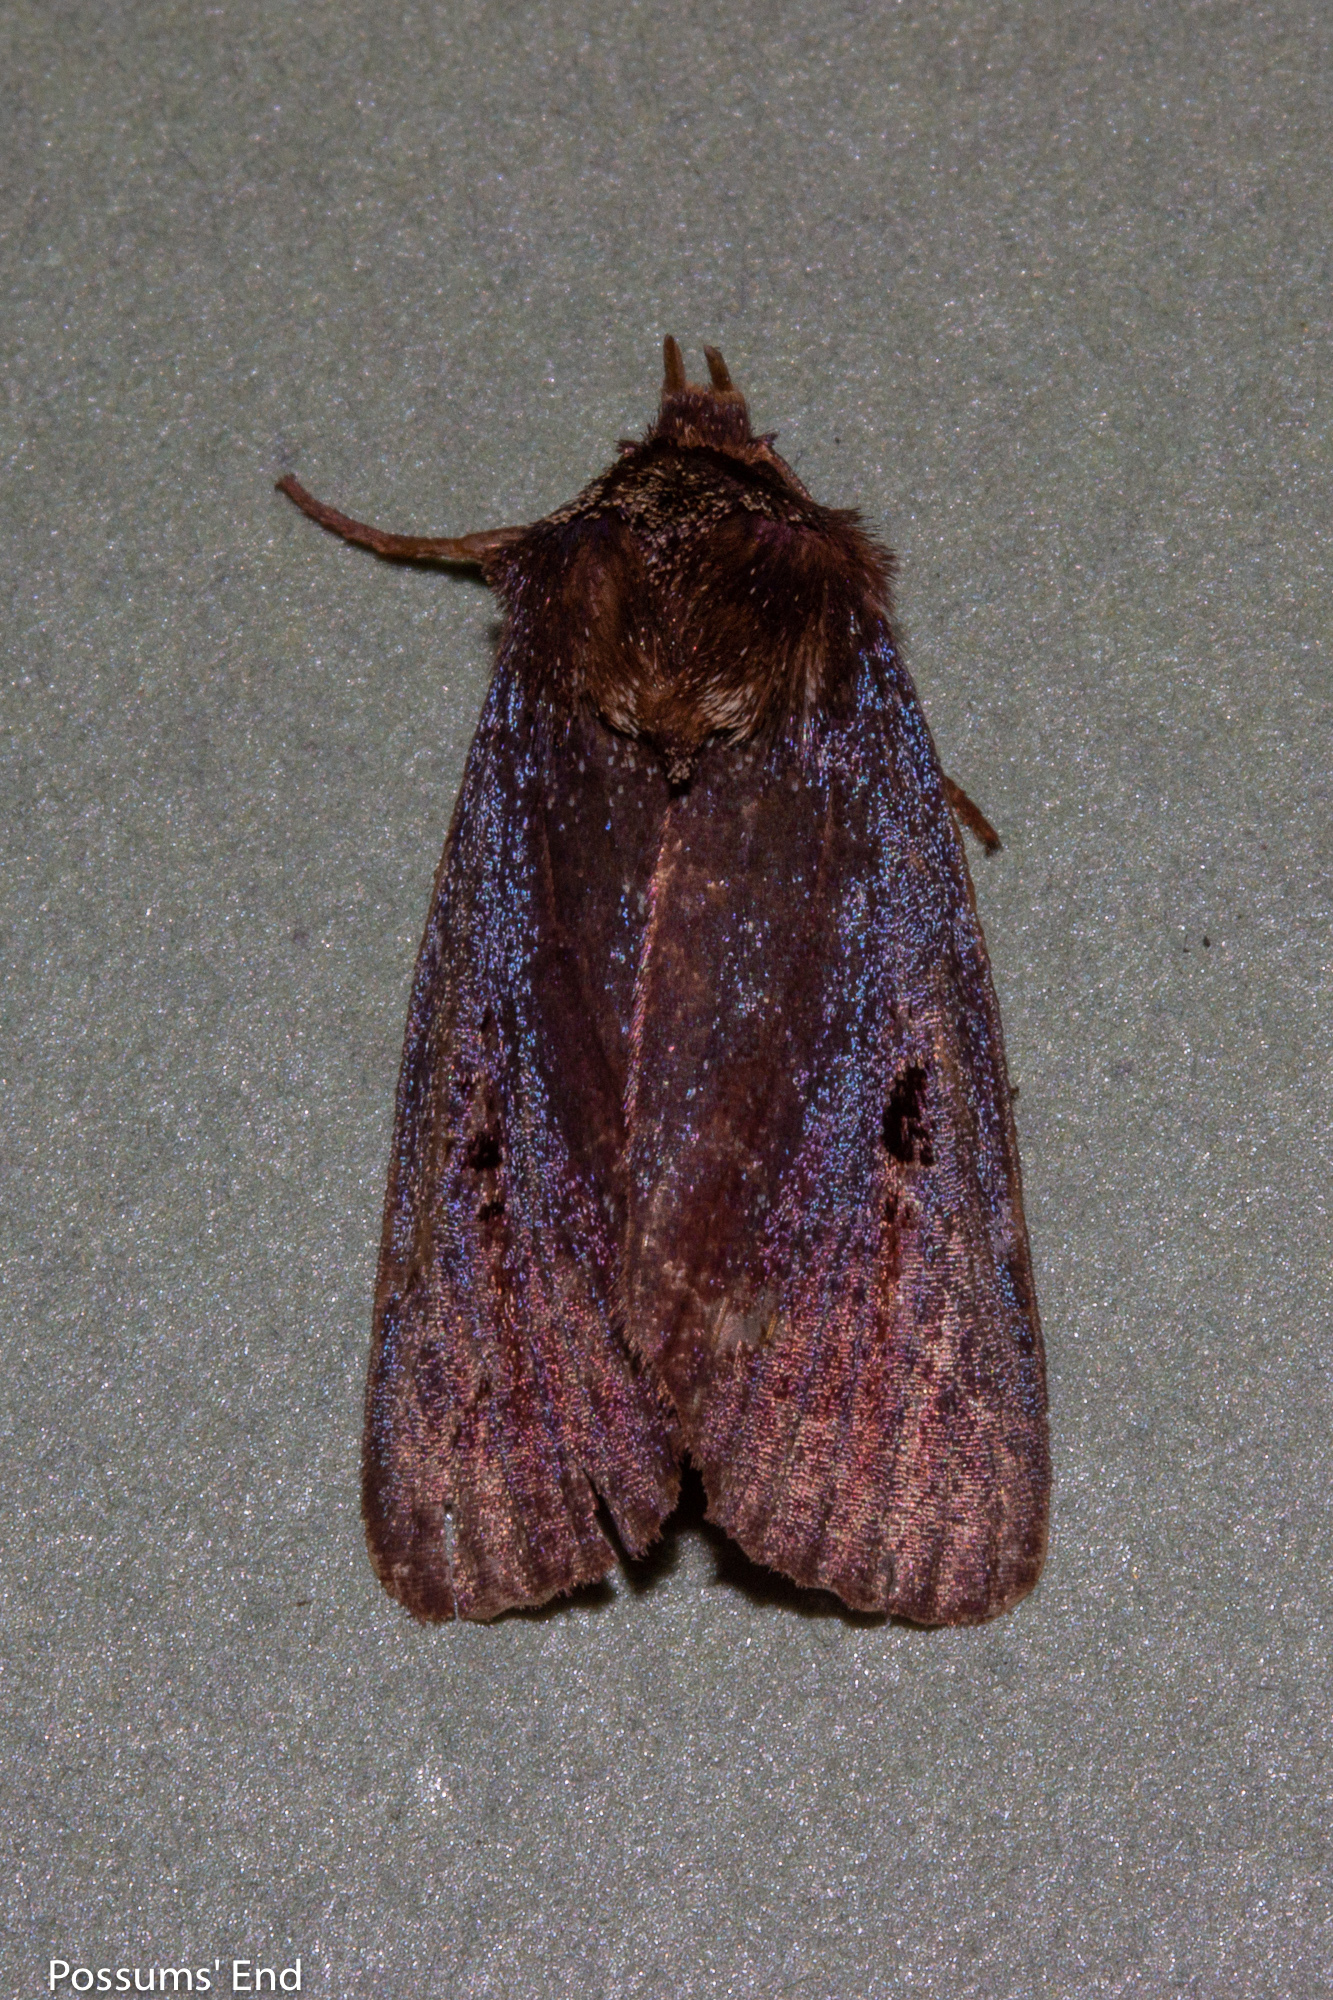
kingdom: Animalia
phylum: Arthropoda
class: Insecta
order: Lepidoptera
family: Noctuidae
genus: Austramathes
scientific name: Austramathes purpurea
